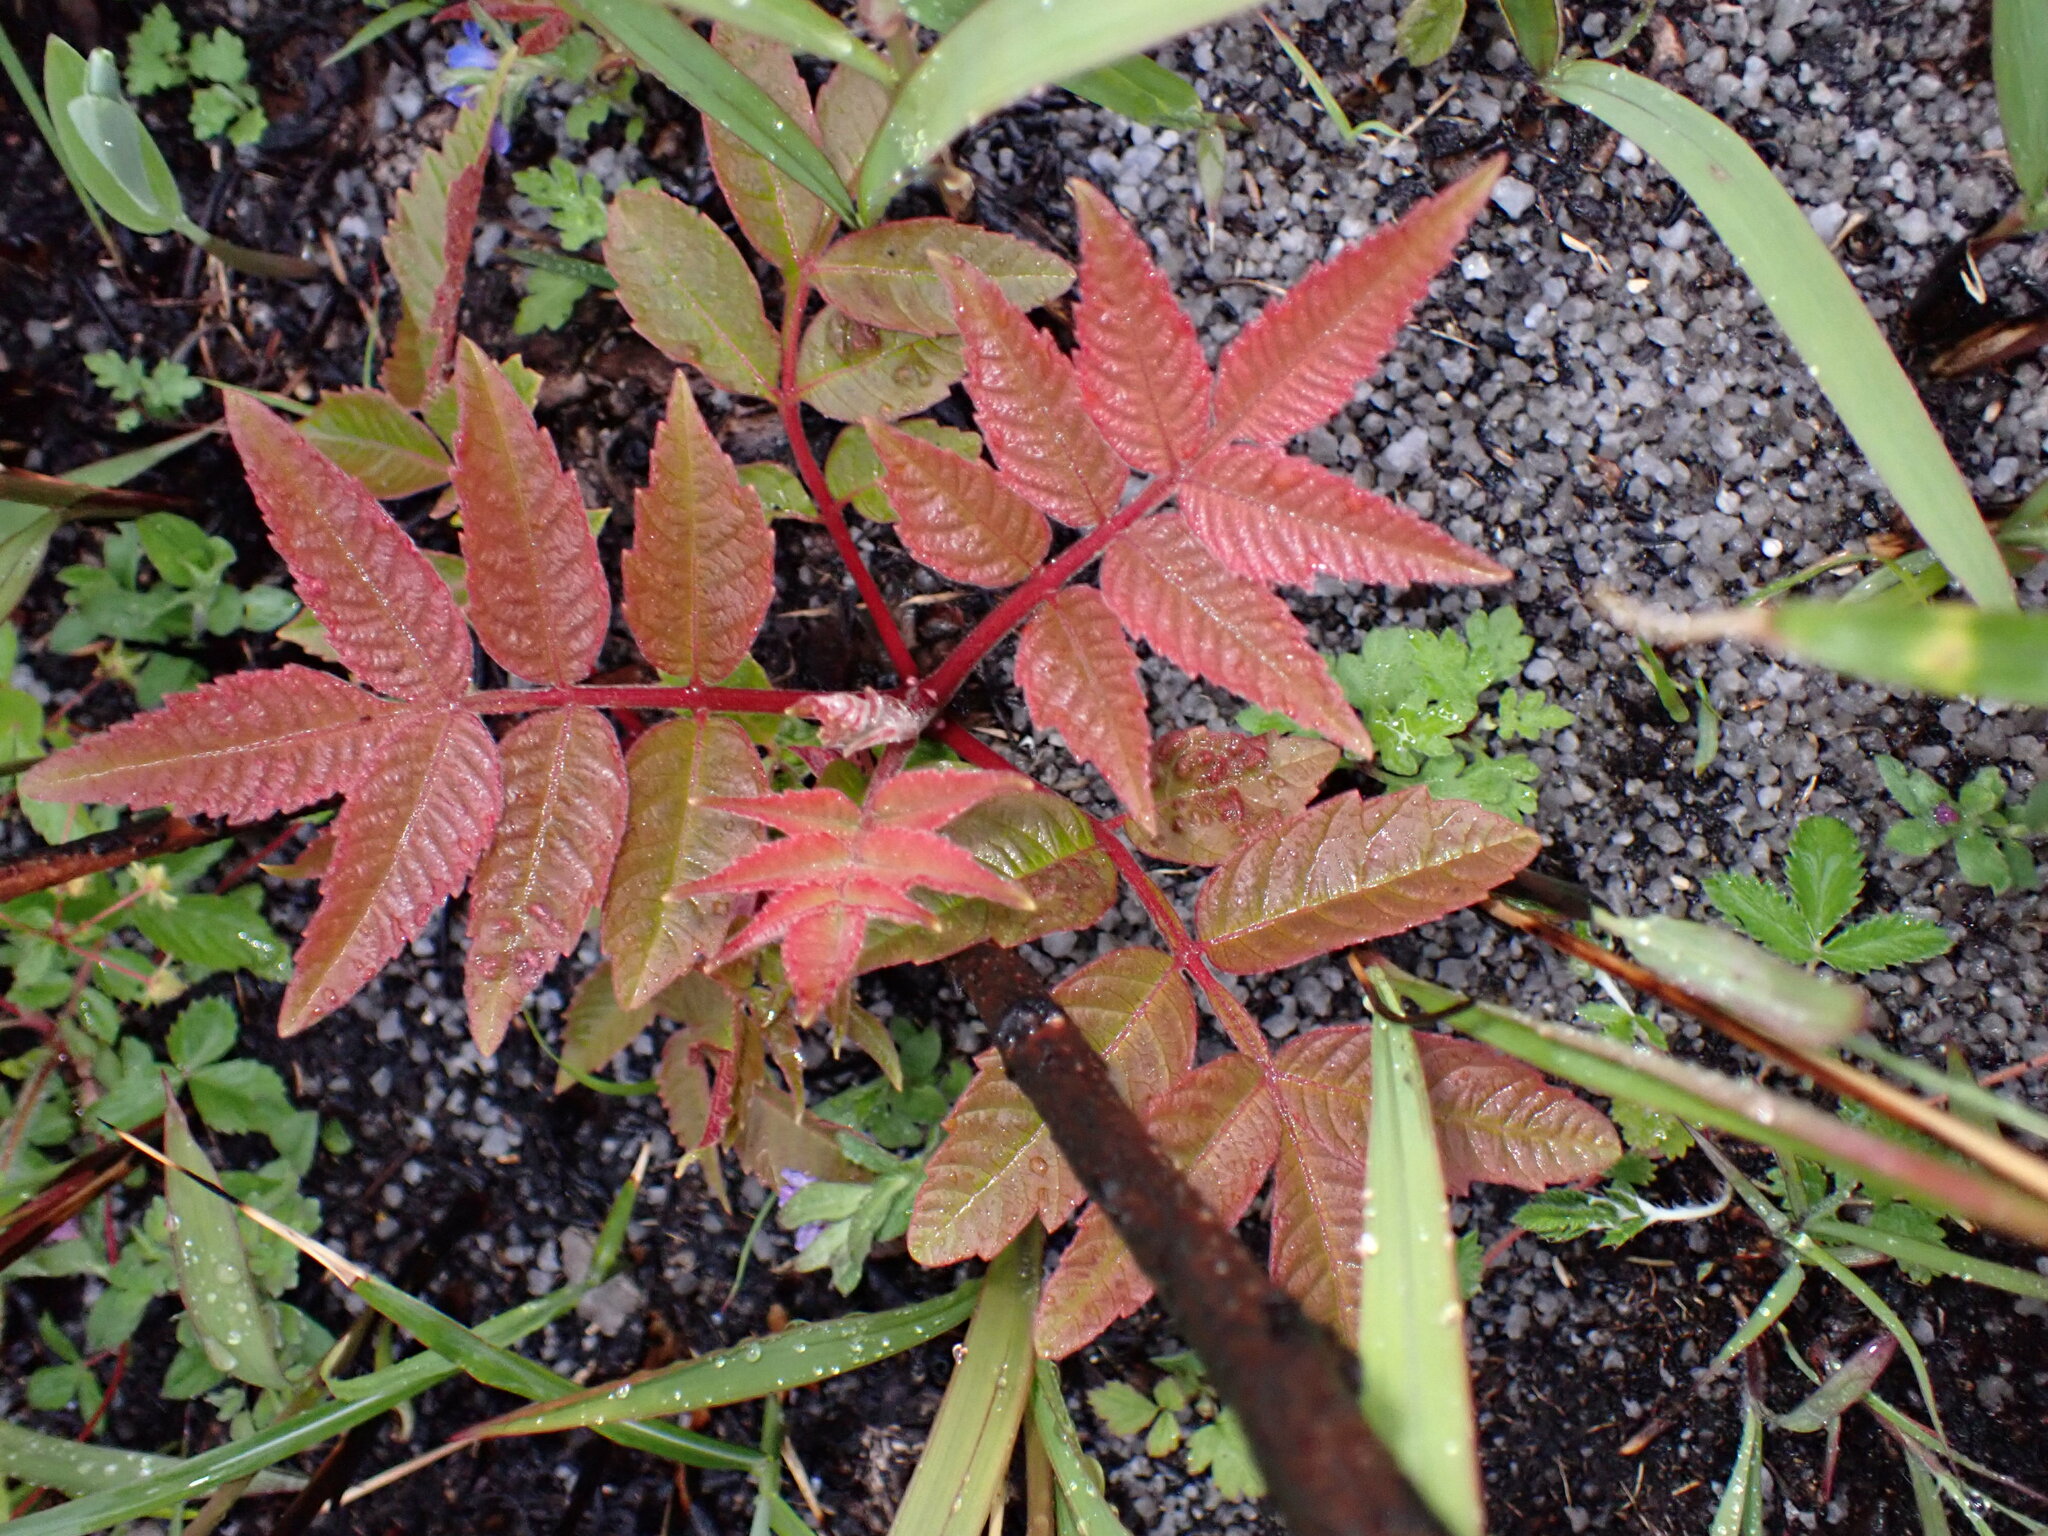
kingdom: Plantae
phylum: Tracheophyta
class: Magnoliopsida
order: Sapindales
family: Anacardiaceae
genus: Rhus
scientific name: Rhus chinensis
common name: Chinese gall
